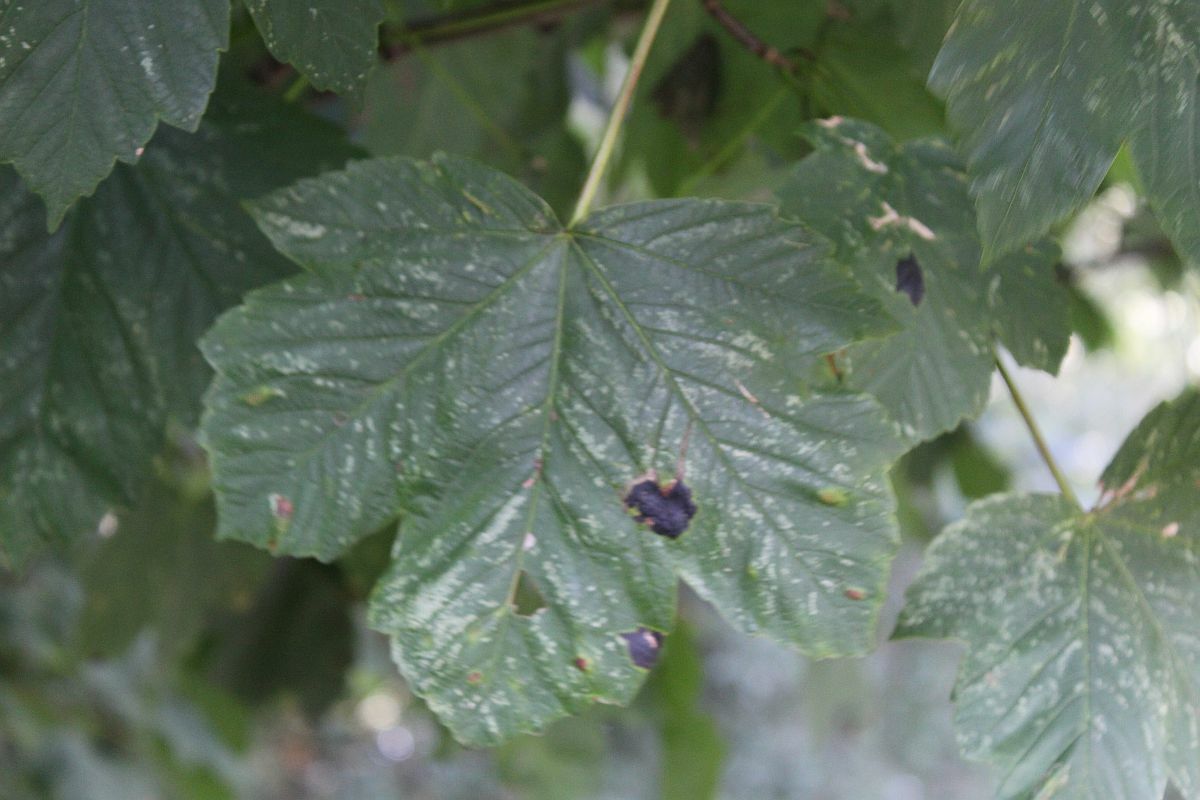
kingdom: Fungi
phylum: Ascomycota
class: Leotiomycetes
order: Rhytismatales
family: Rhytismataceae
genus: Rhytisma
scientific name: Rhytisma acerinum
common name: European tar spot
